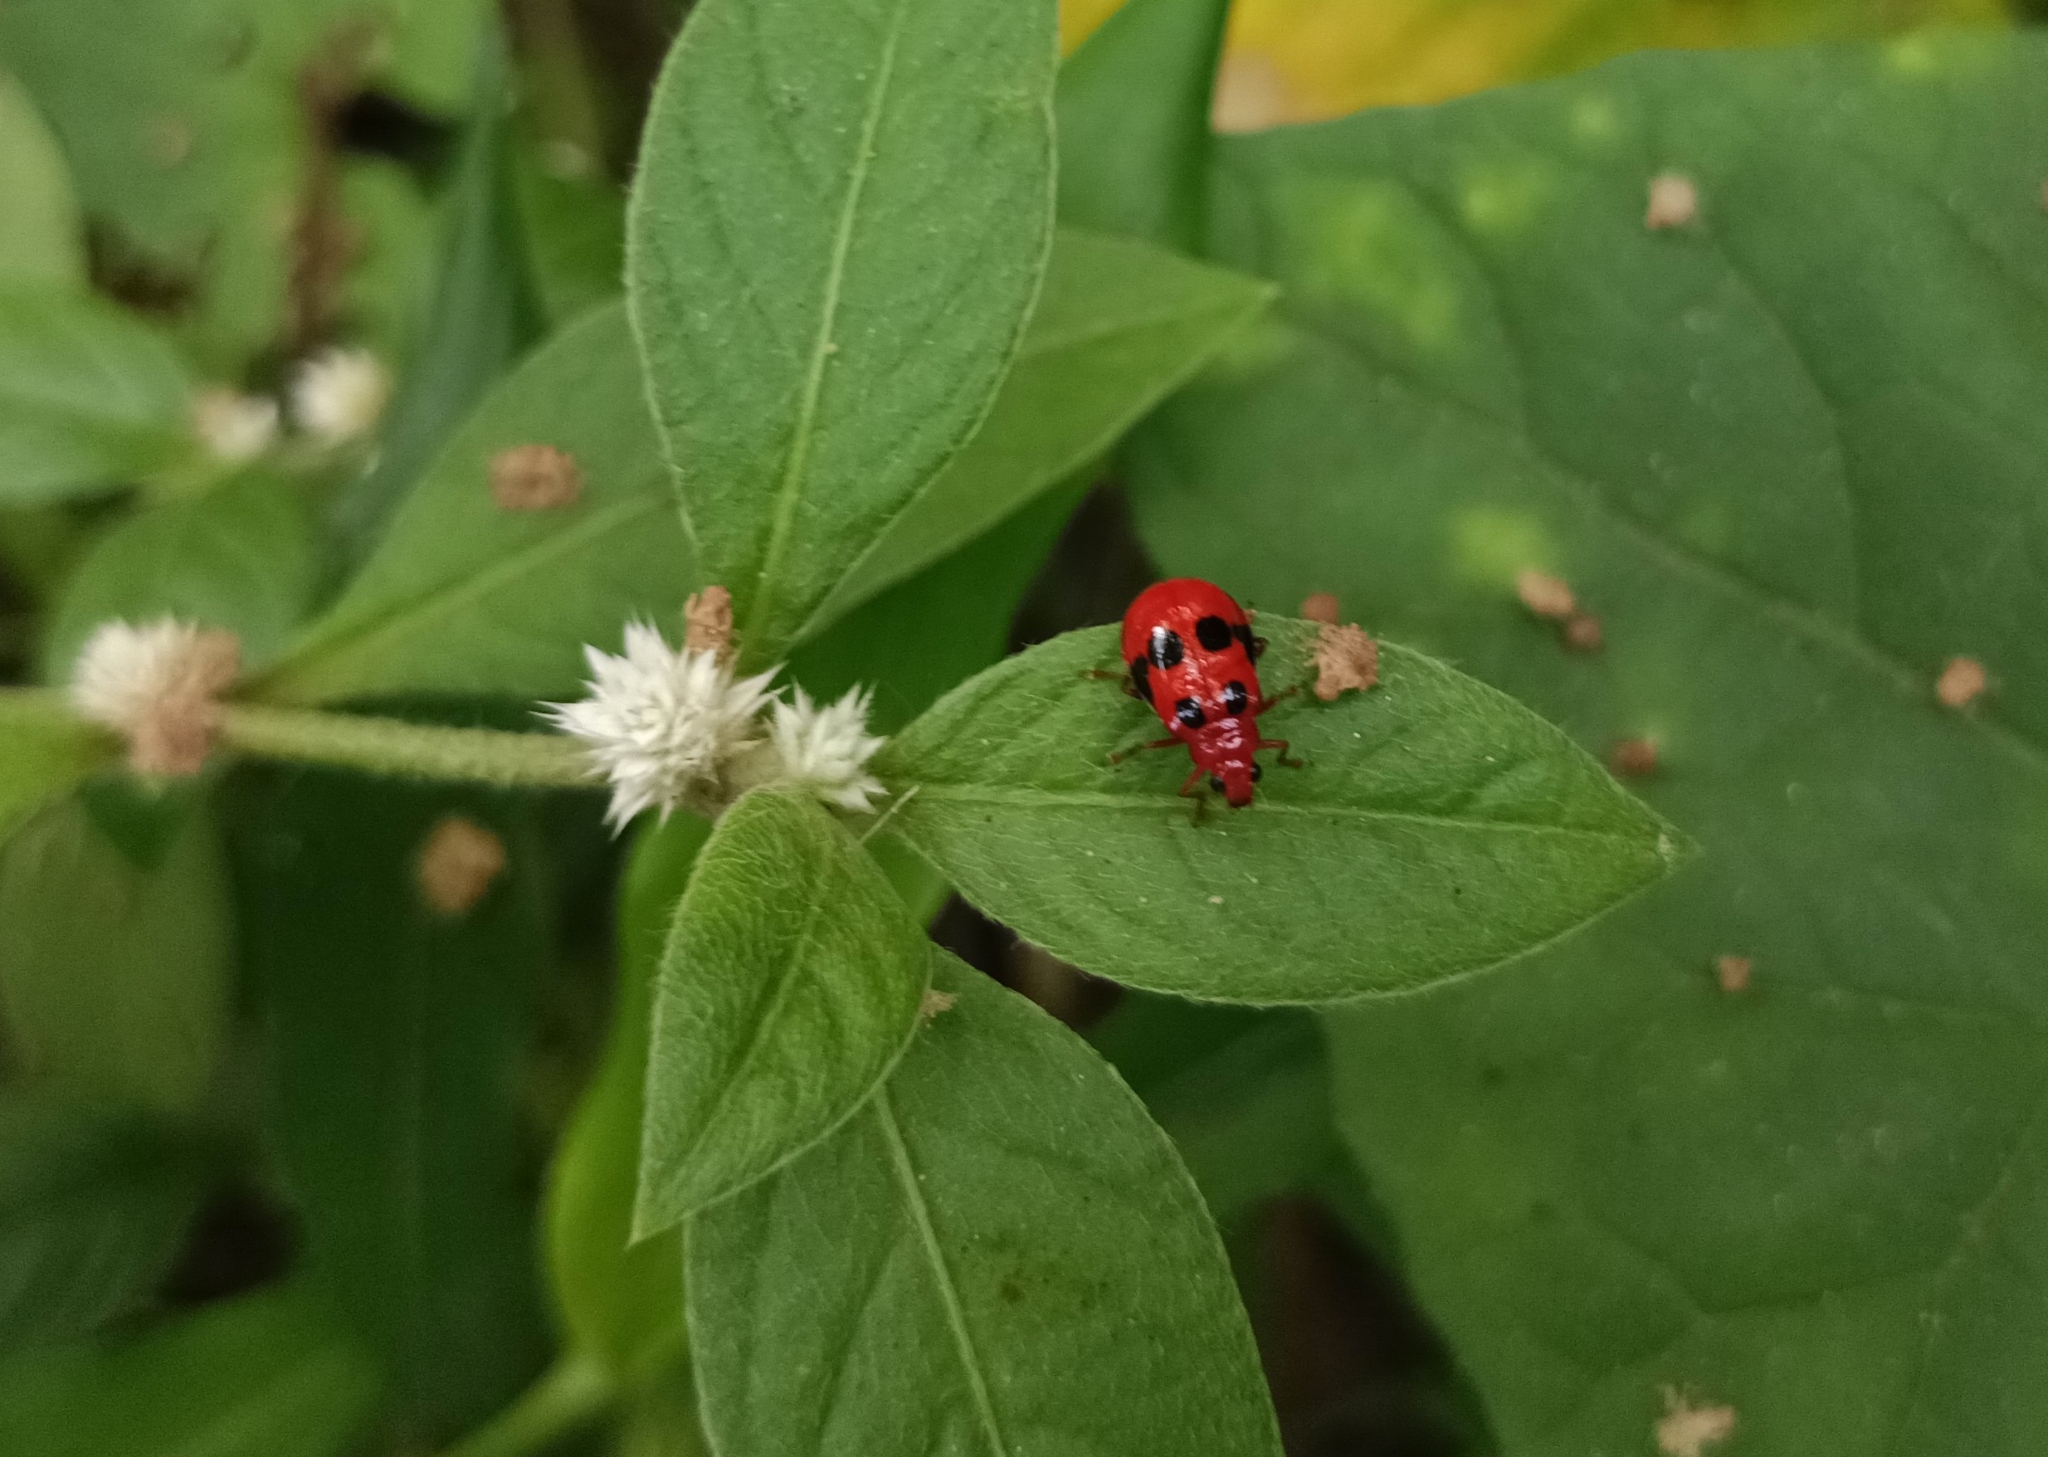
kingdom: Animalia
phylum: Arthropoda
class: Insecta
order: Coleoptera
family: Chrysomelidae
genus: Aulacophora
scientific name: Aulacophora
